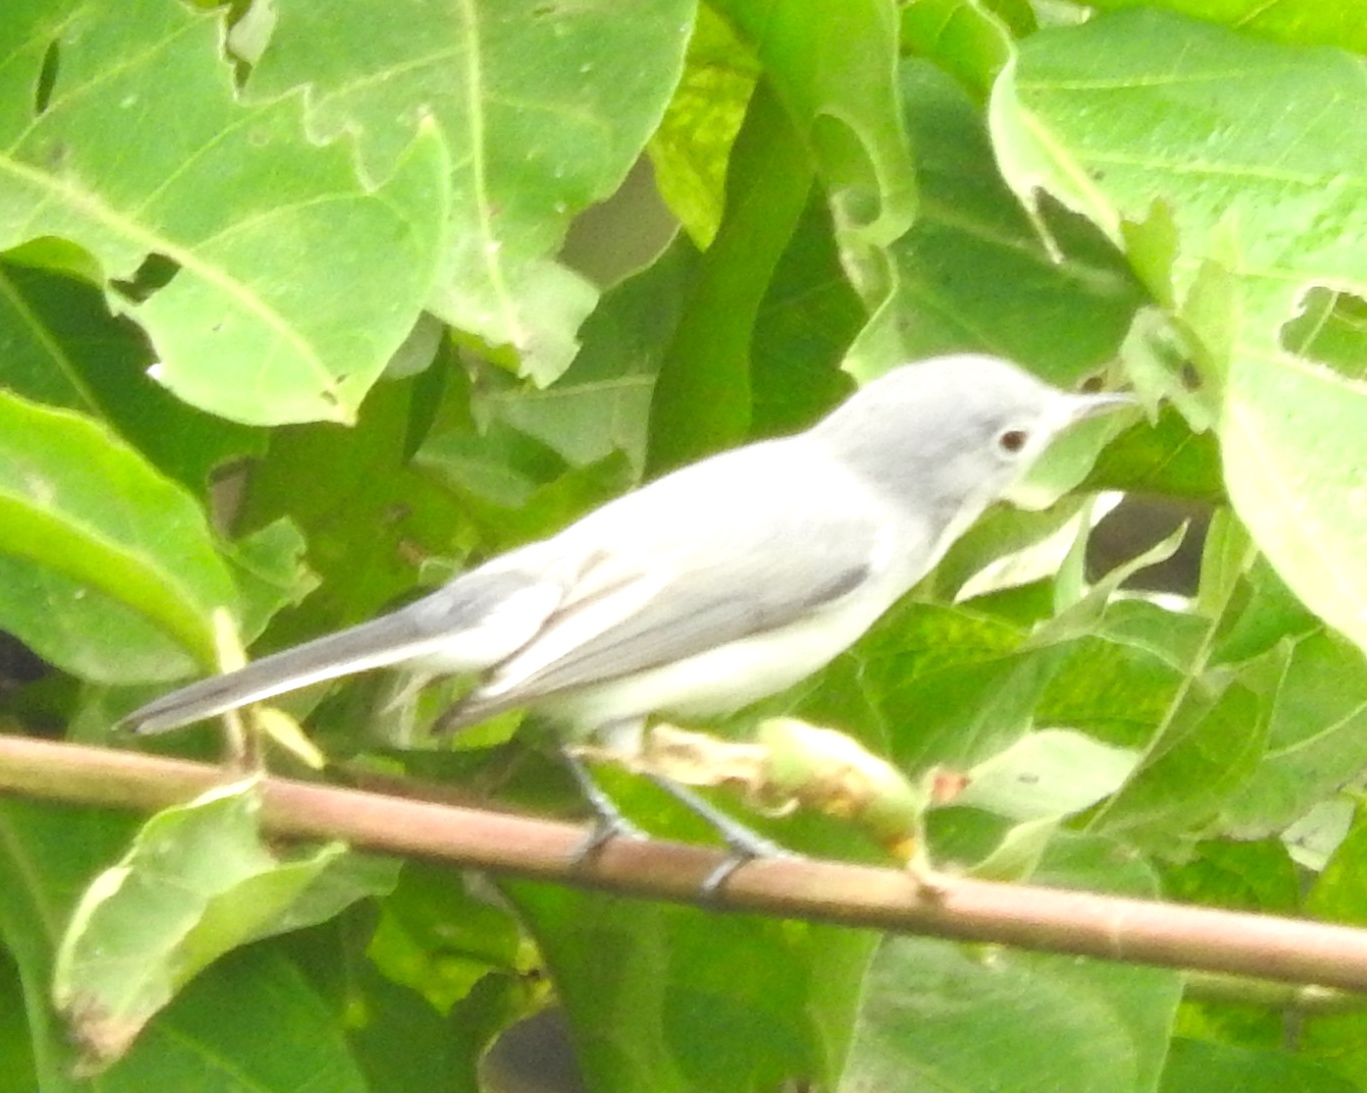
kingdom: Animalia
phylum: Chordata
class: Aves
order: Passeriformes
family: Polioptilidae
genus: Polioptila
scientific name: Polioptila caerulea
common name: Blue-gray gnatcatcher
